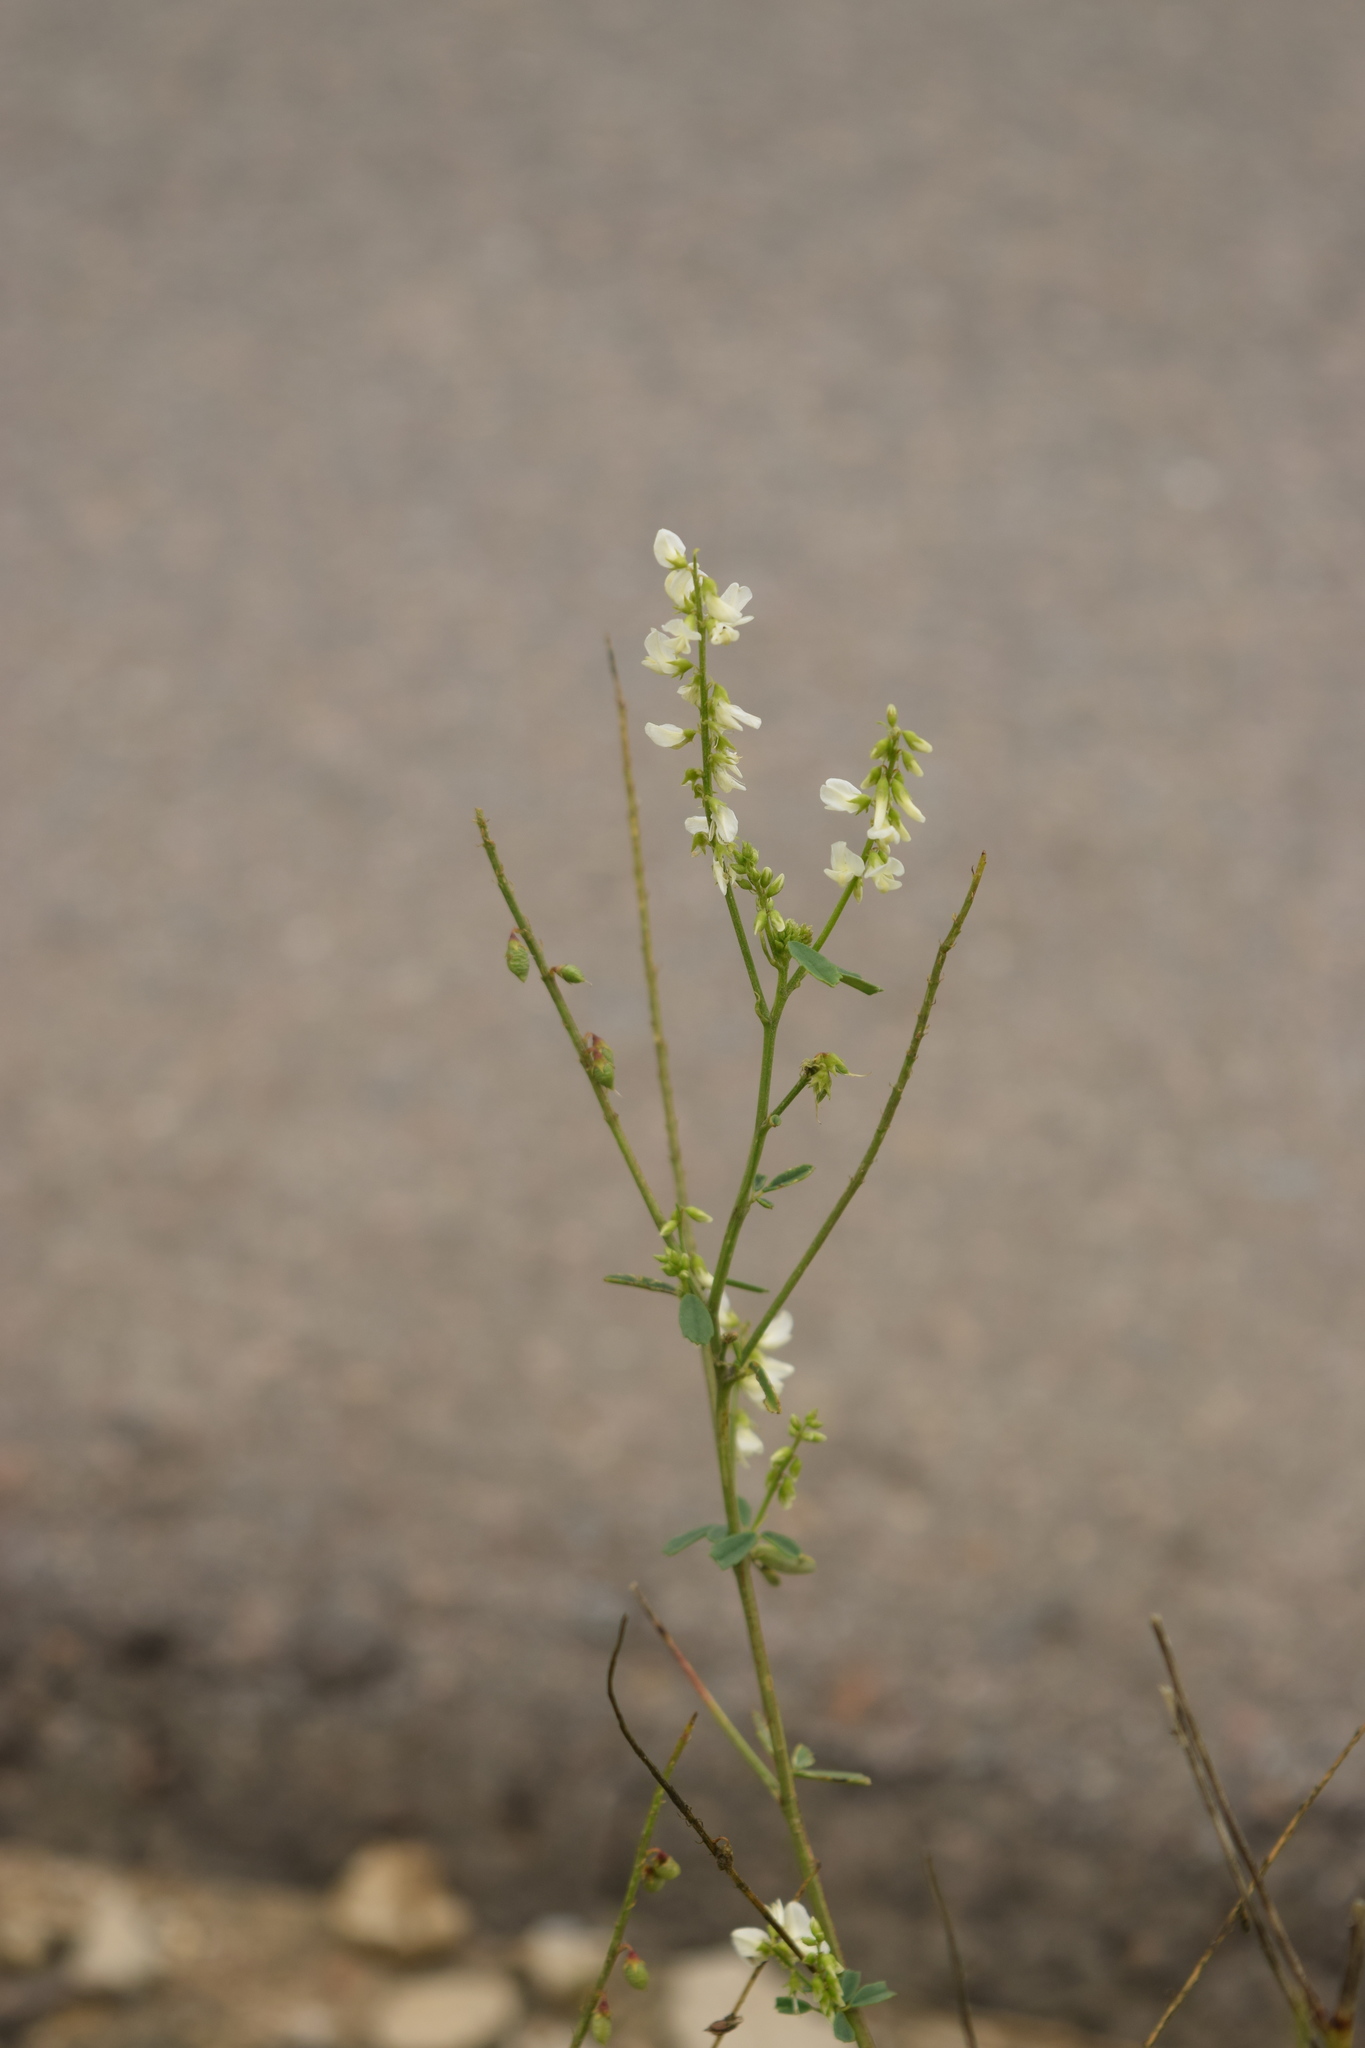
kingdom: Plantae
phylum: Tracheophyta
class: Magnoliopsida
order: Fabales
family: Fabaceae
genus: Melilotus
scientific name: Melilotus albus
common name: White melilot
